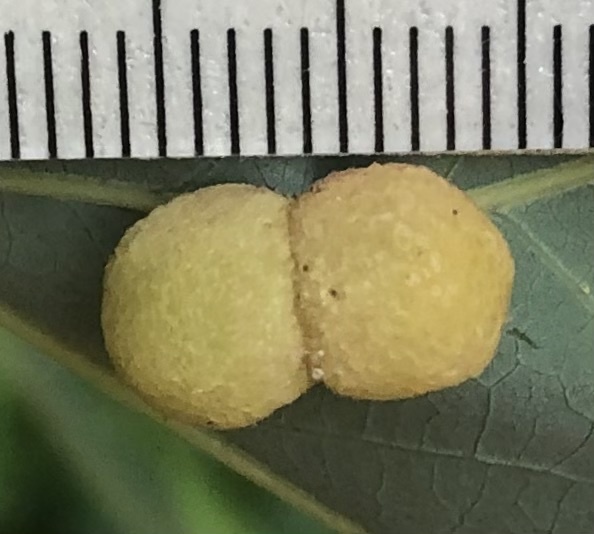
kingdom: Animalia
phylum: Arthropoda
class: Insecta
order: Hymenoptera
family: Cynipidae
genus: Acraspis
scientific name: Acraspis
